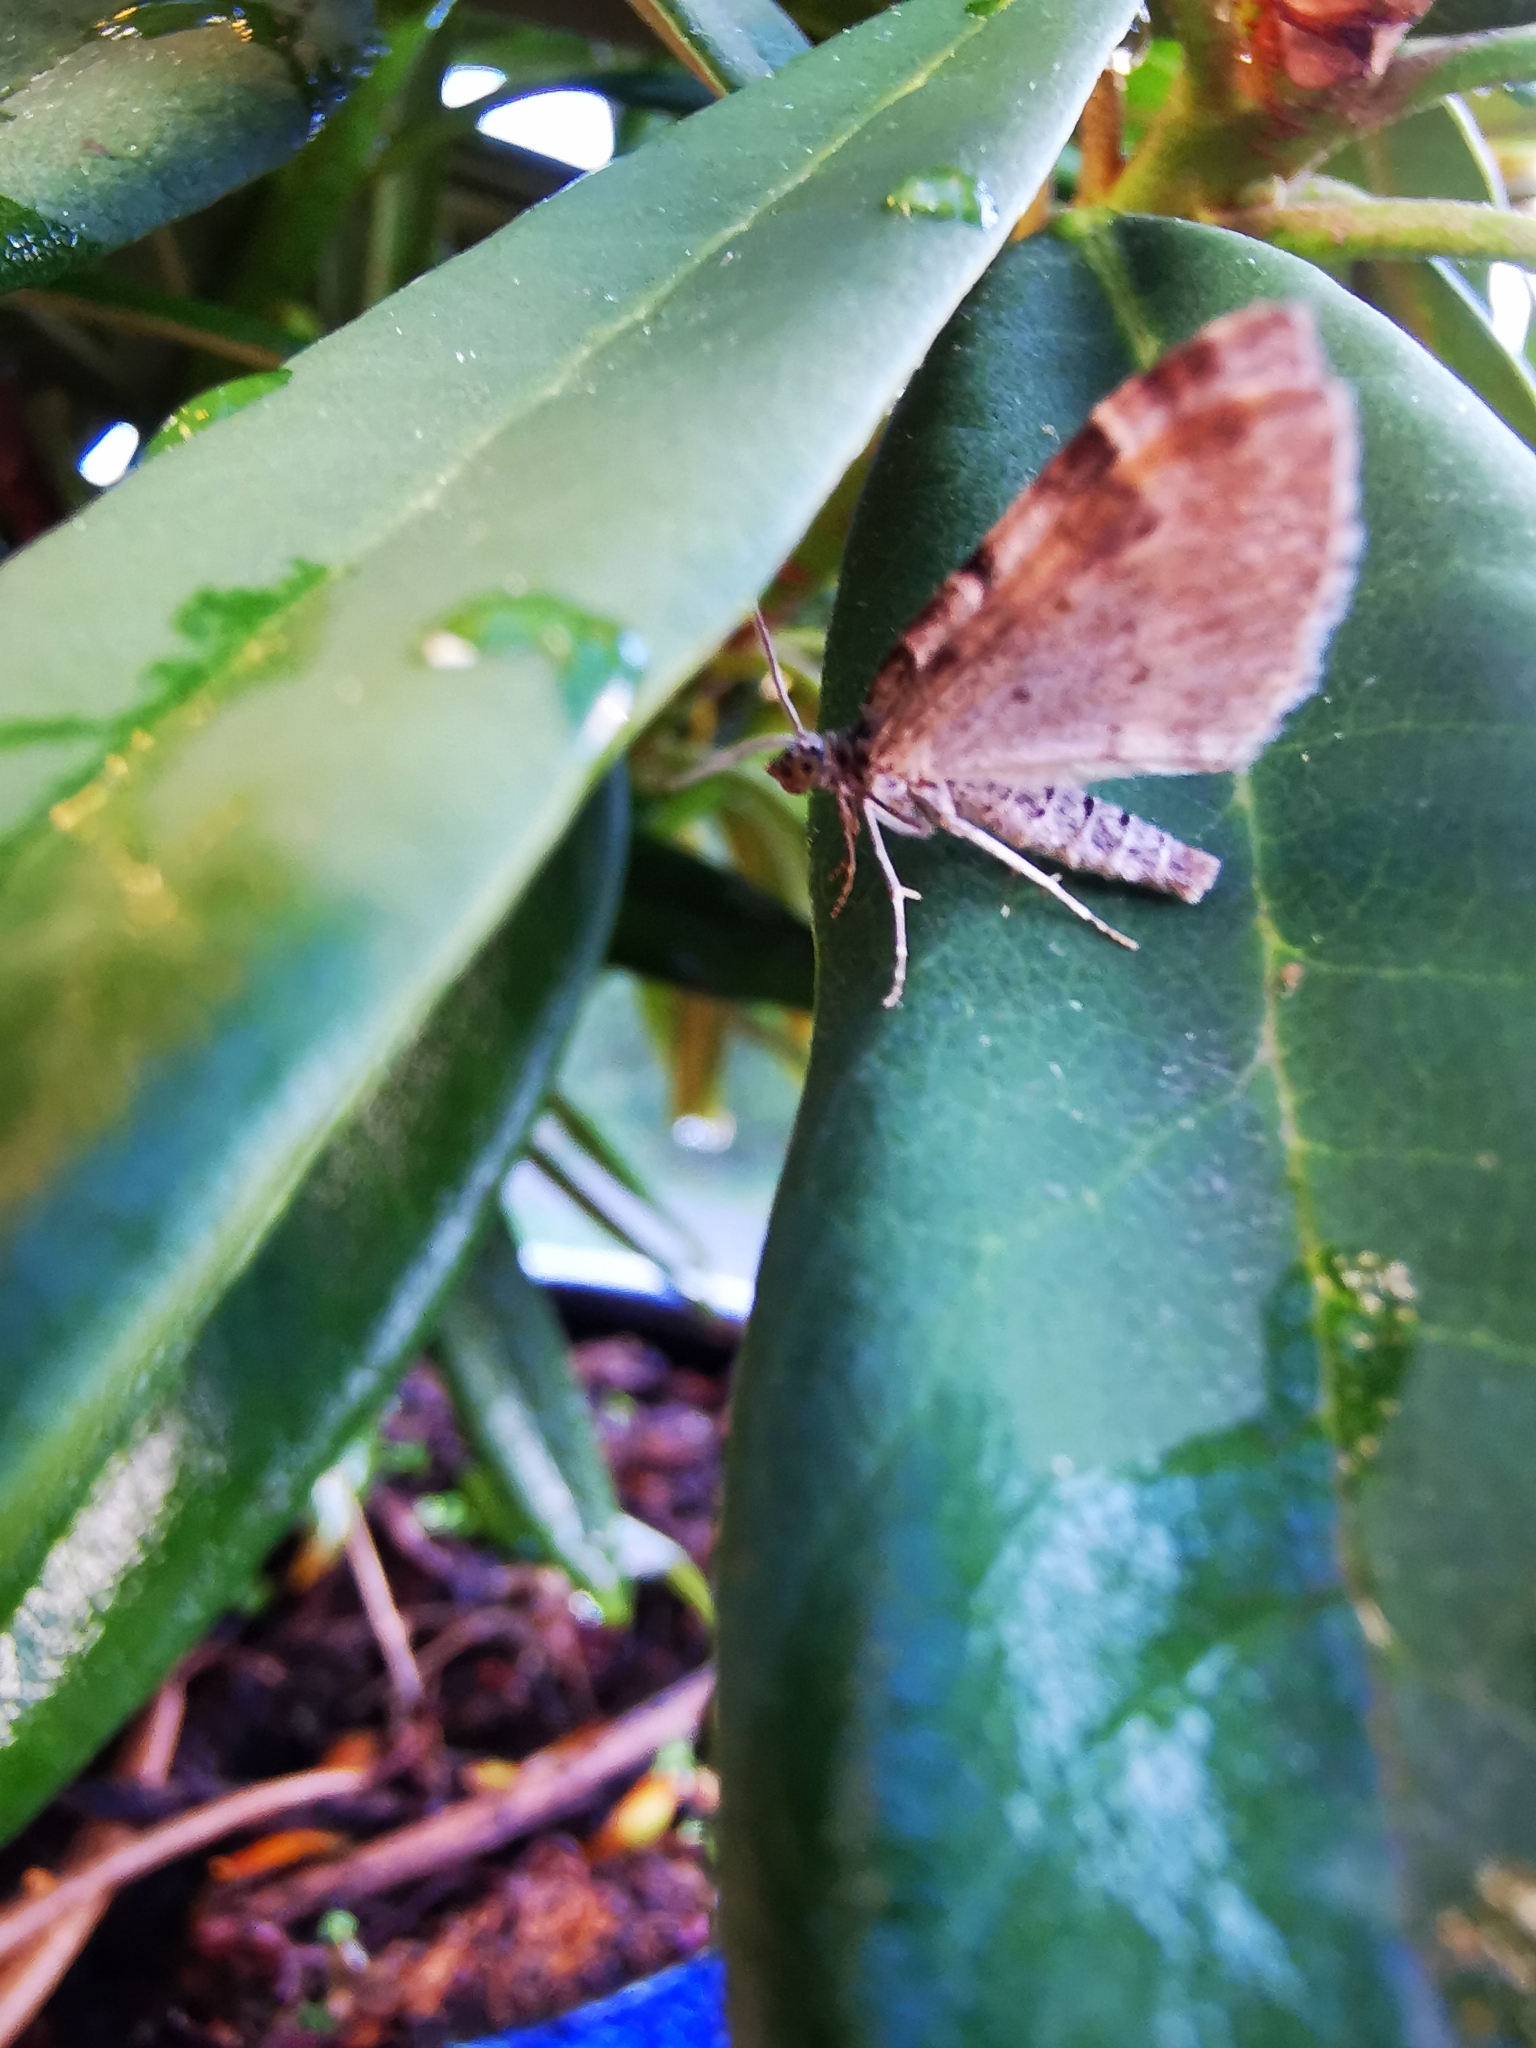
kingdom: Animalia
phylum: Arthropoda
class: Insecta
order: Lepidoptera
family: Geometridae
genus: Xanthorhoe
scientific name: Xanthorhoe designata
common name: Flame carpet
